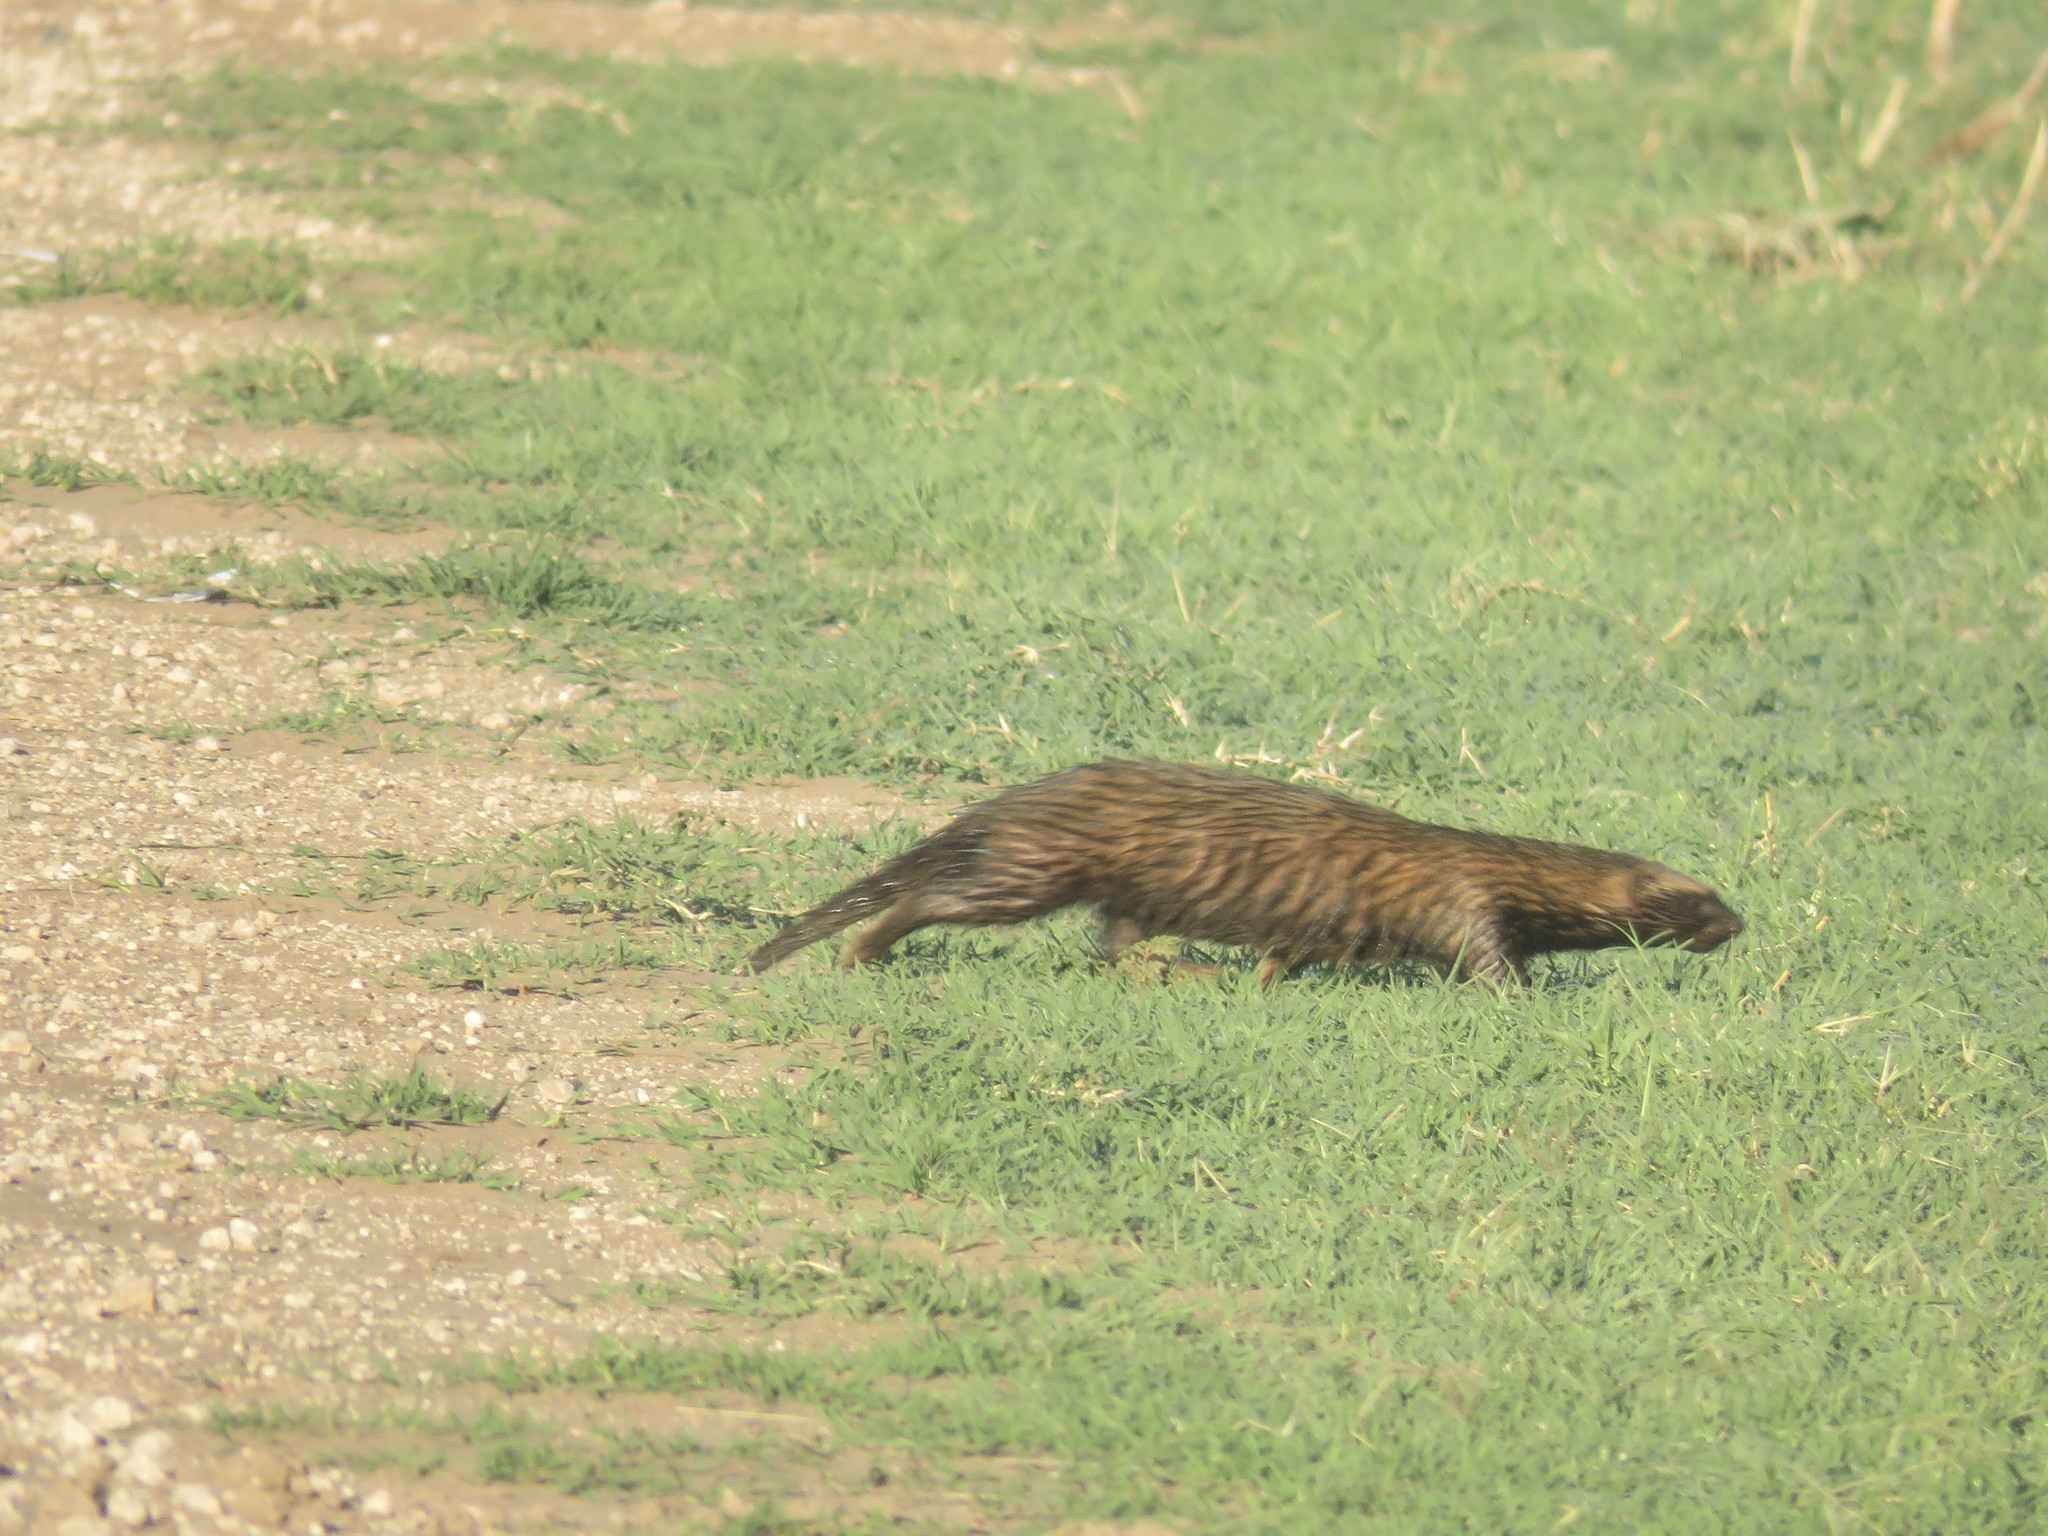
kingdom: Animalia
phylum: Chordata
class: Mammalia
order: Carnivora
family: Mustelidae
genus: Galictis
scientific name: Galictis cuja
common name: Lesser grison
